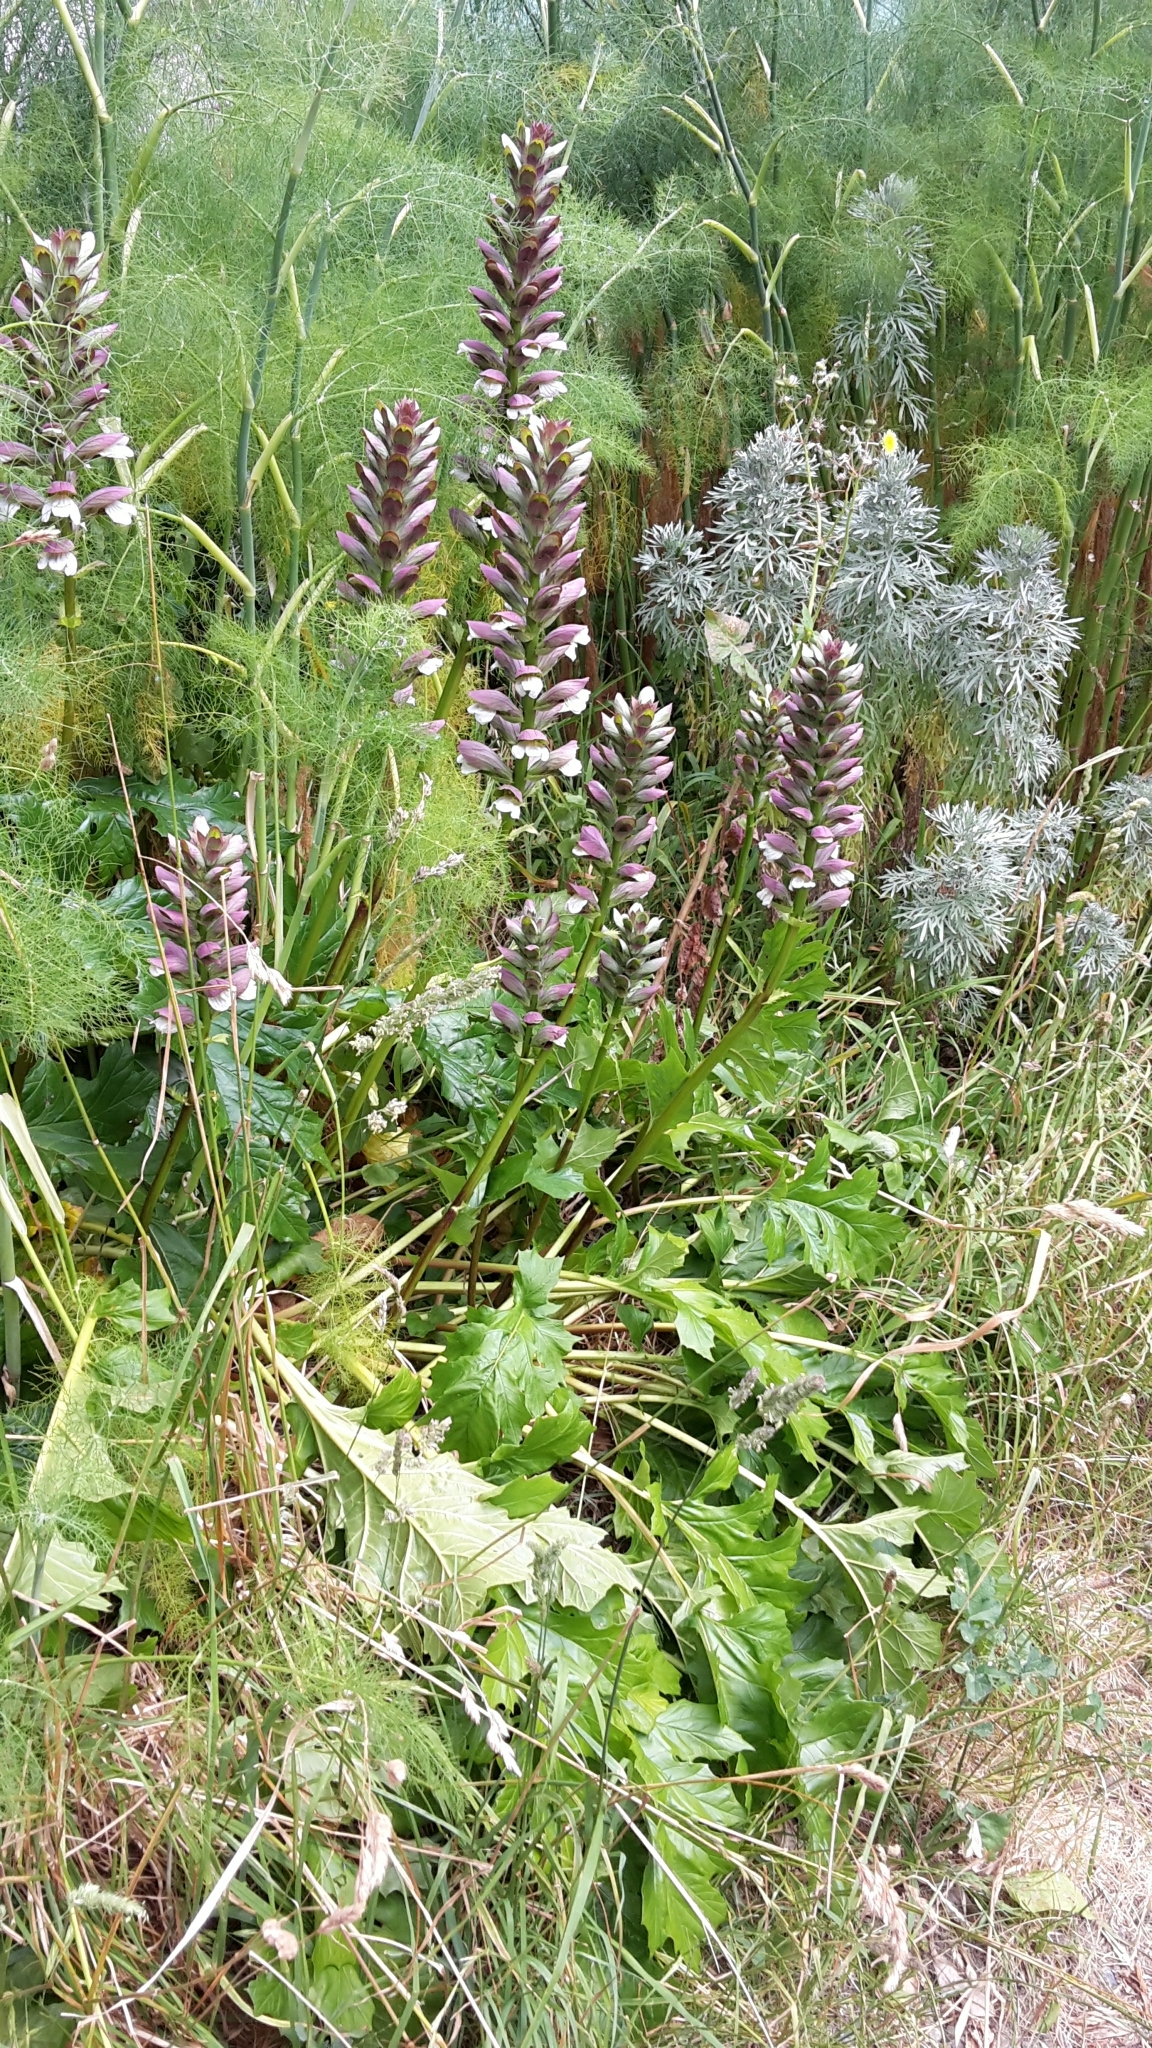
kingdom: Plantae
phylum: Tracheophyta
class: Magnoliopsida
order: Lamiales
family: Acanthaceae
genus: Acanthus
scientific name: Acanthus mollis
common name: Bear's-breech
